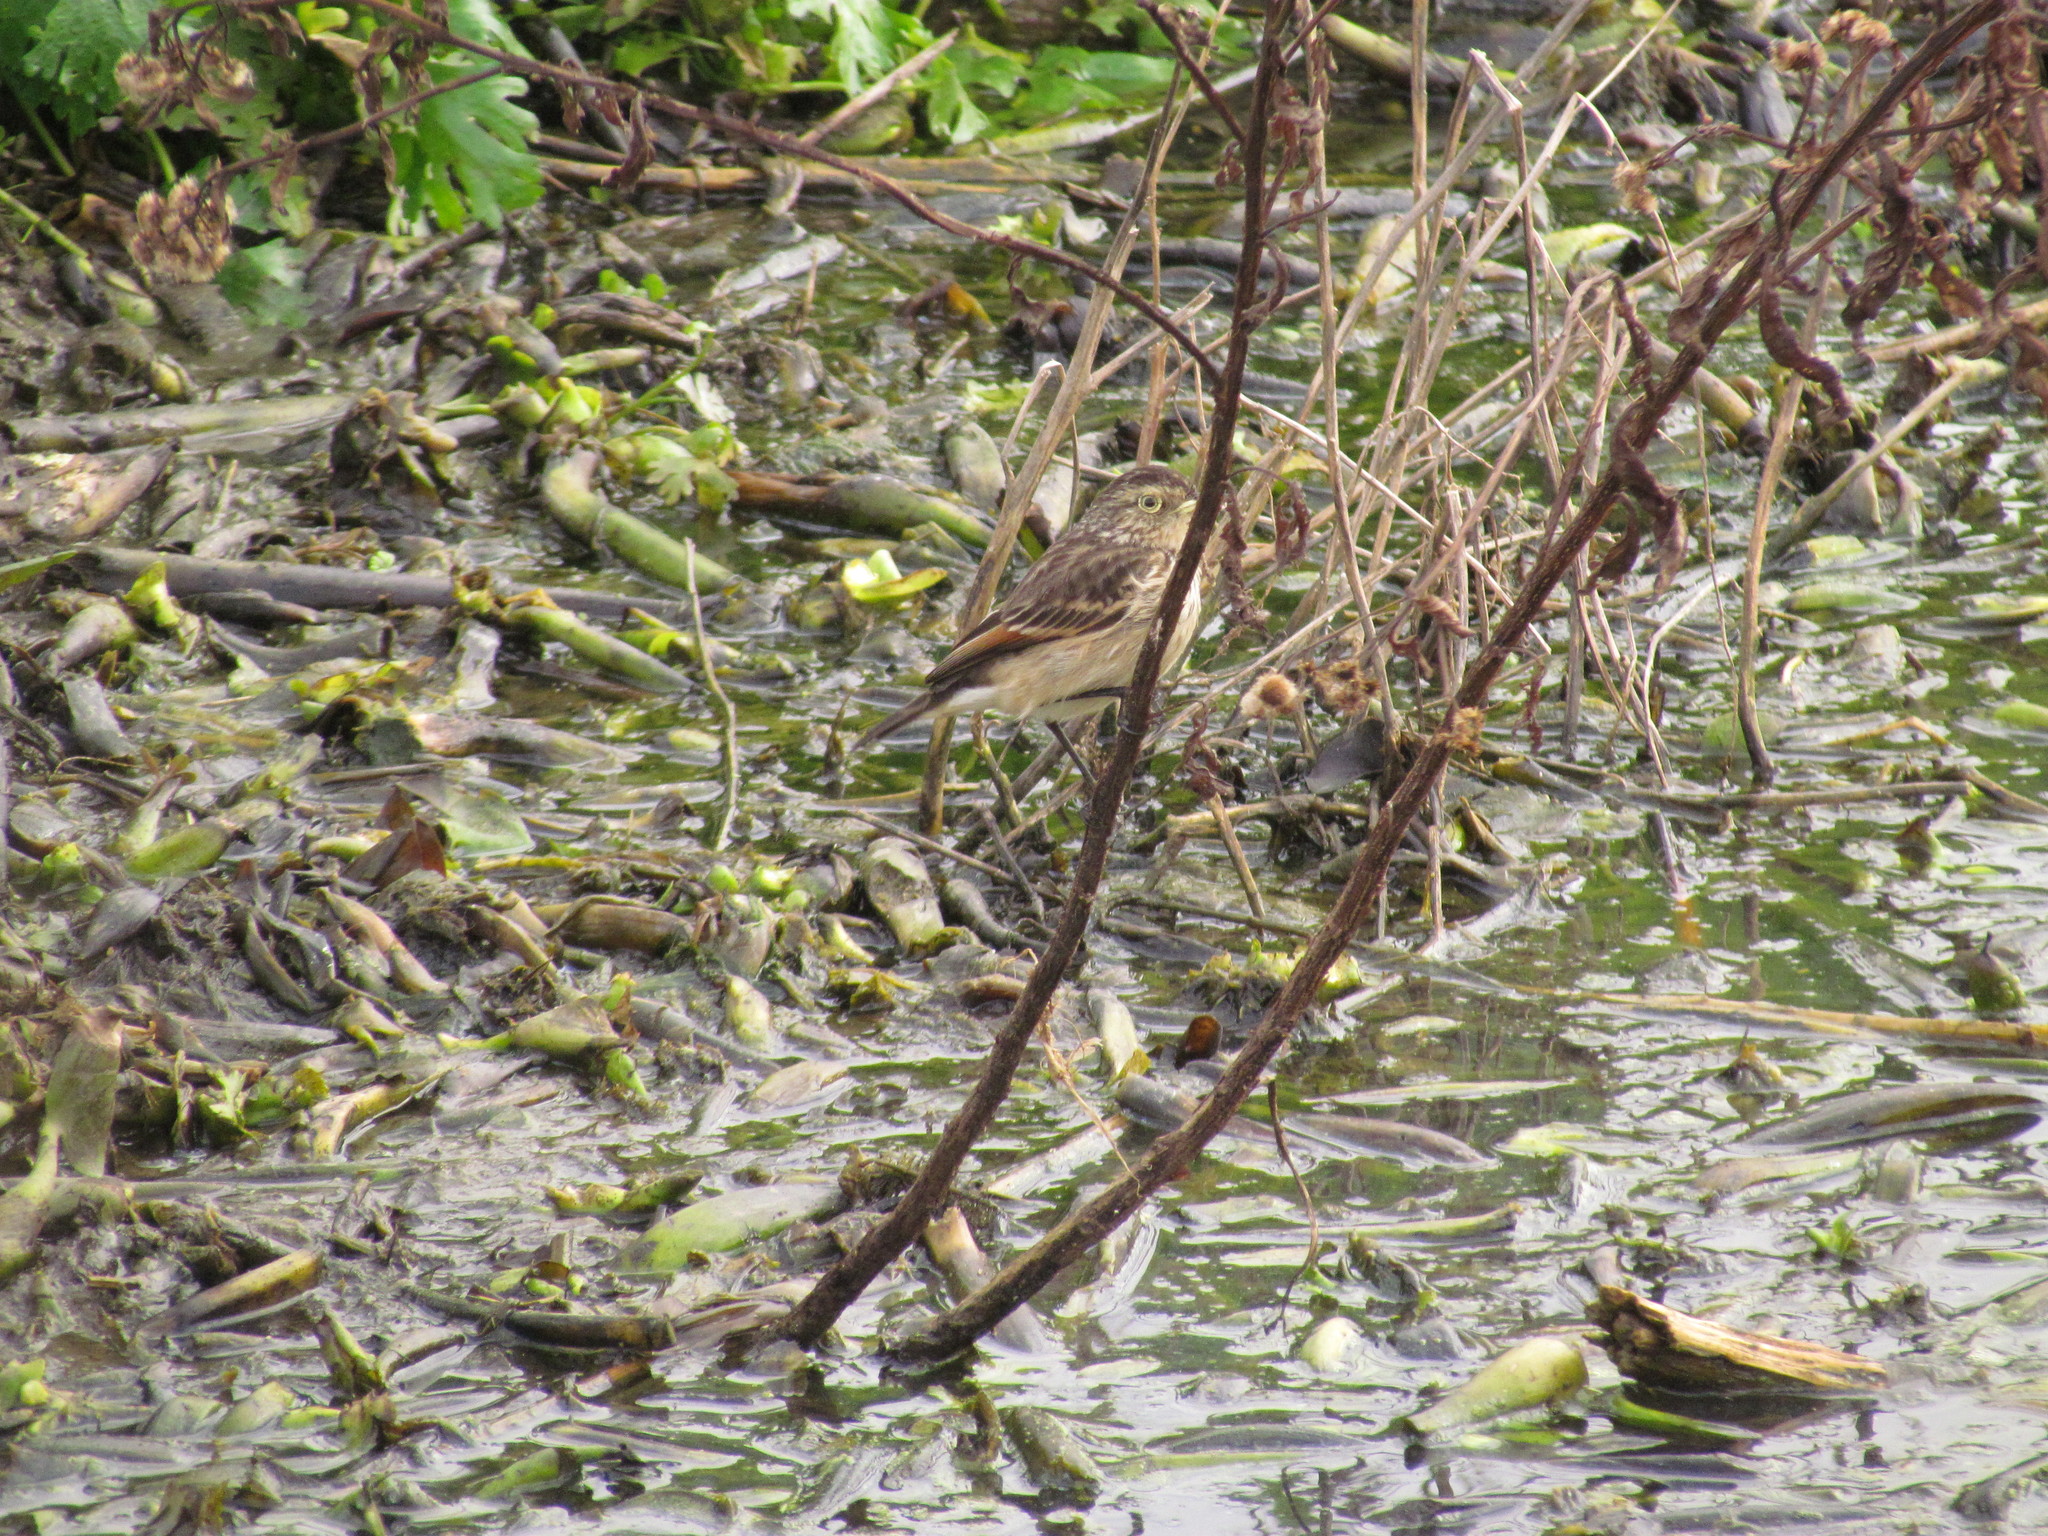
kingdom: Animalia
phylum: Chordata
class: Aves
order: Passeriformes
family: Tyrannidae
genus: Hymenops
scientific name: Hymenops perspicillatus
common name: Spectacled tyrant
